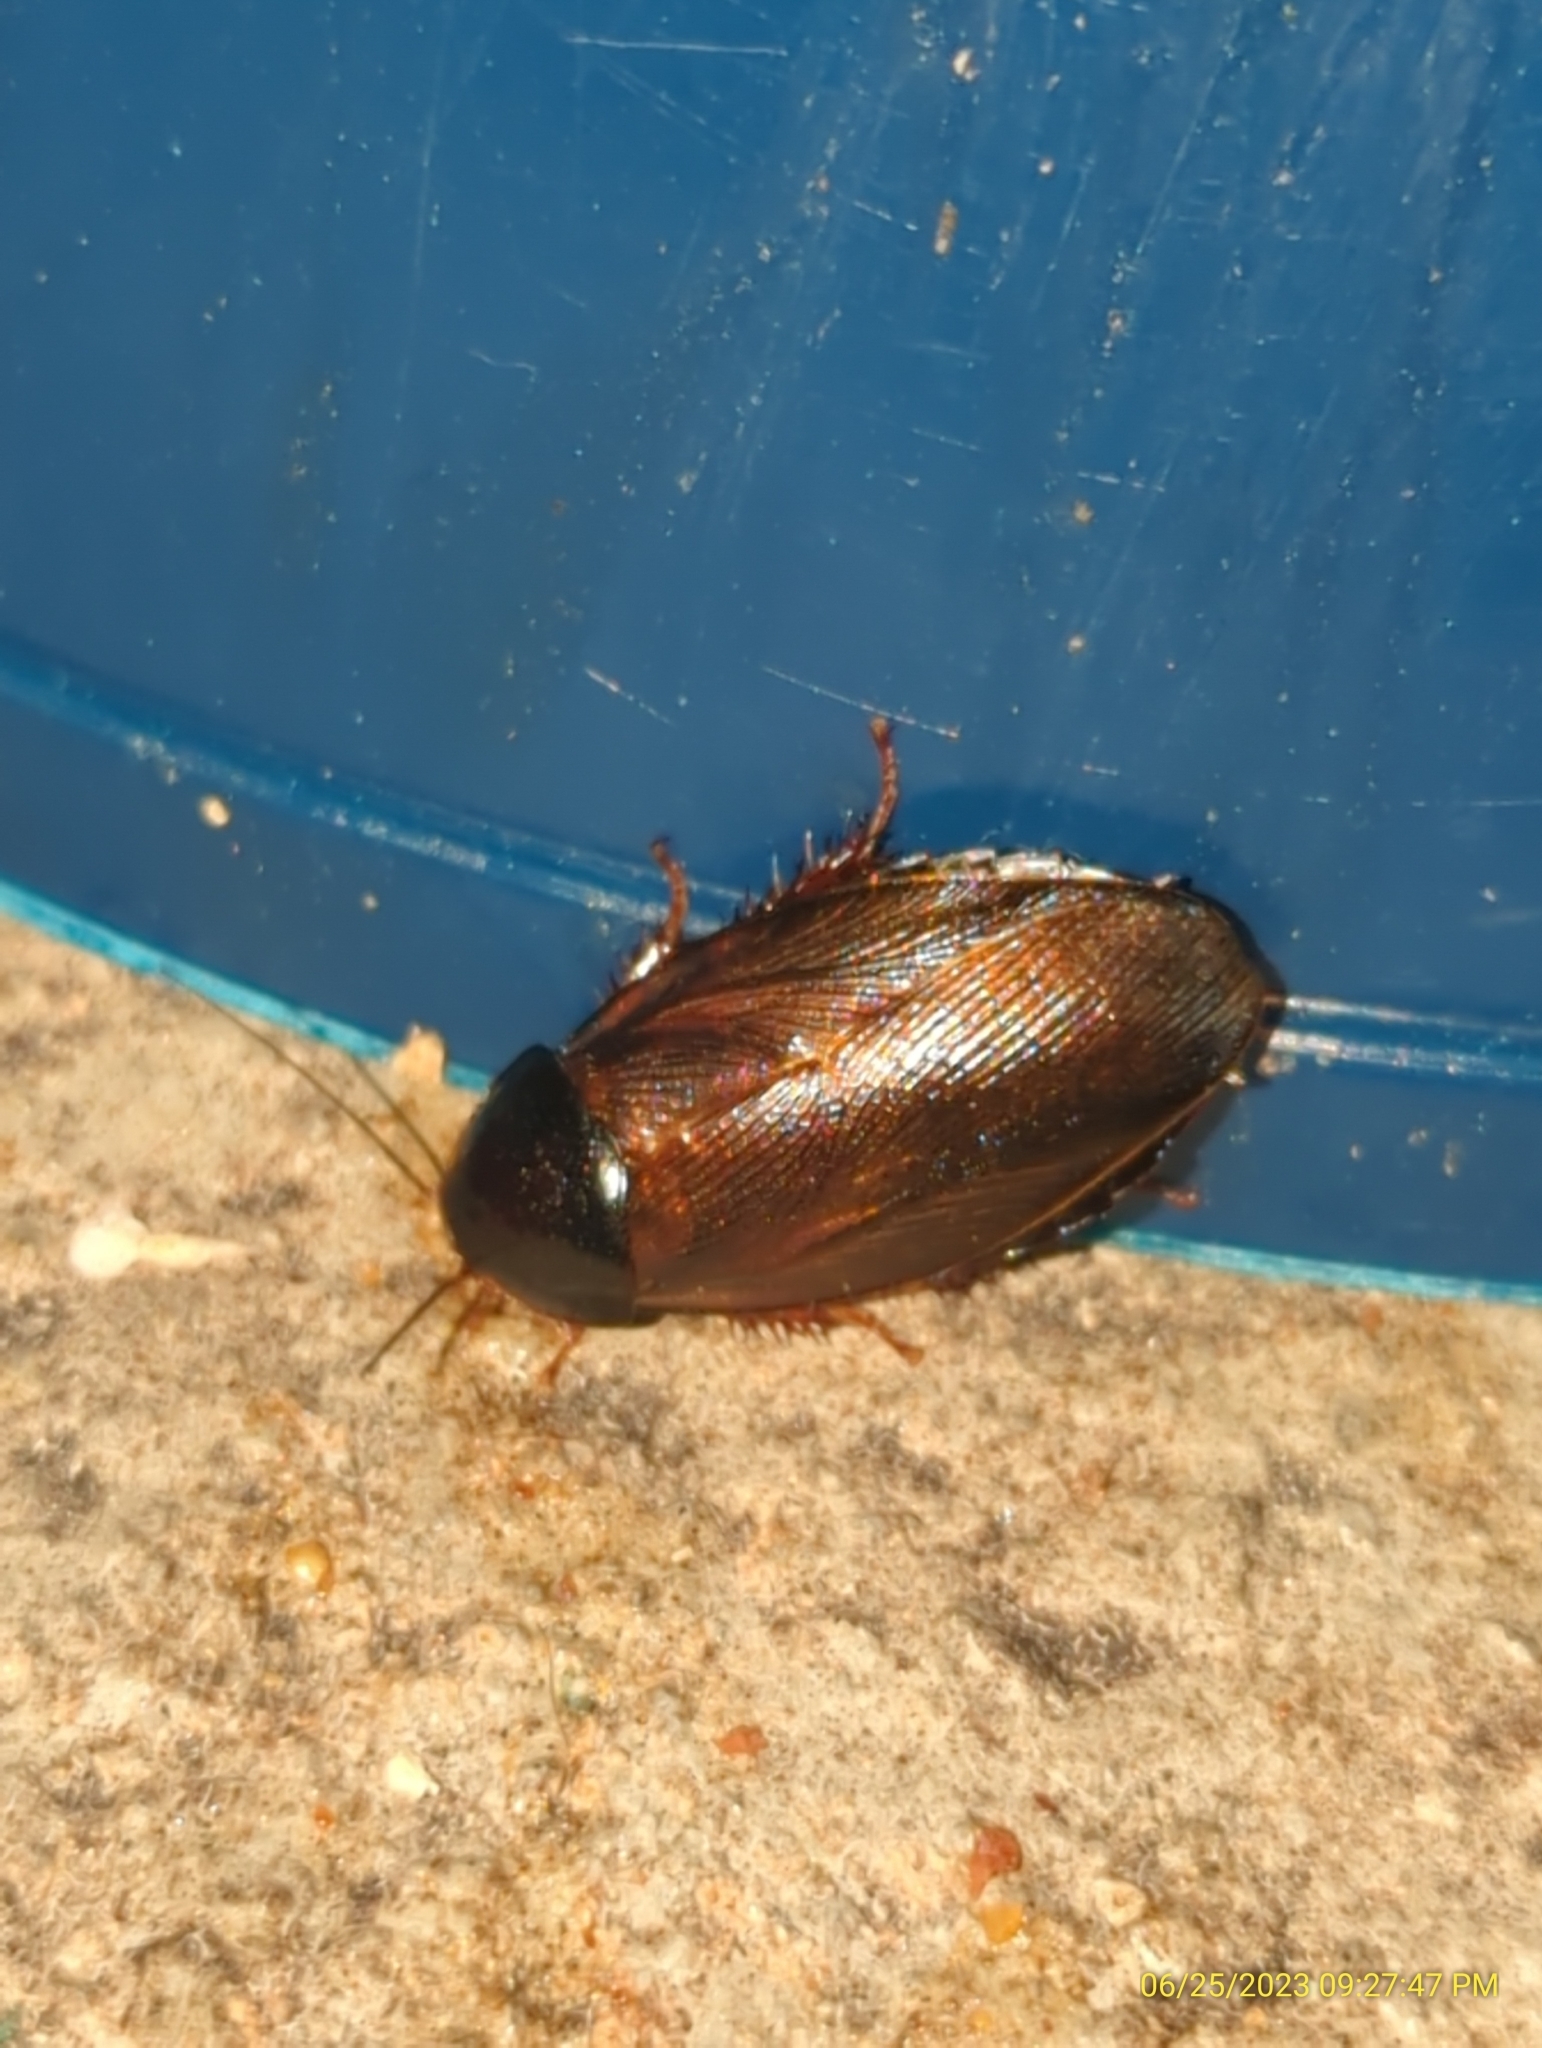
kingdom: Animalia
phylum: Arthropoda
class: Insecta
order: Blattodea
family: Blaberidae
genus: Pycnoscelus
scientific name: Pycnoscelus surinamensis
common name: Surinam cockroach
